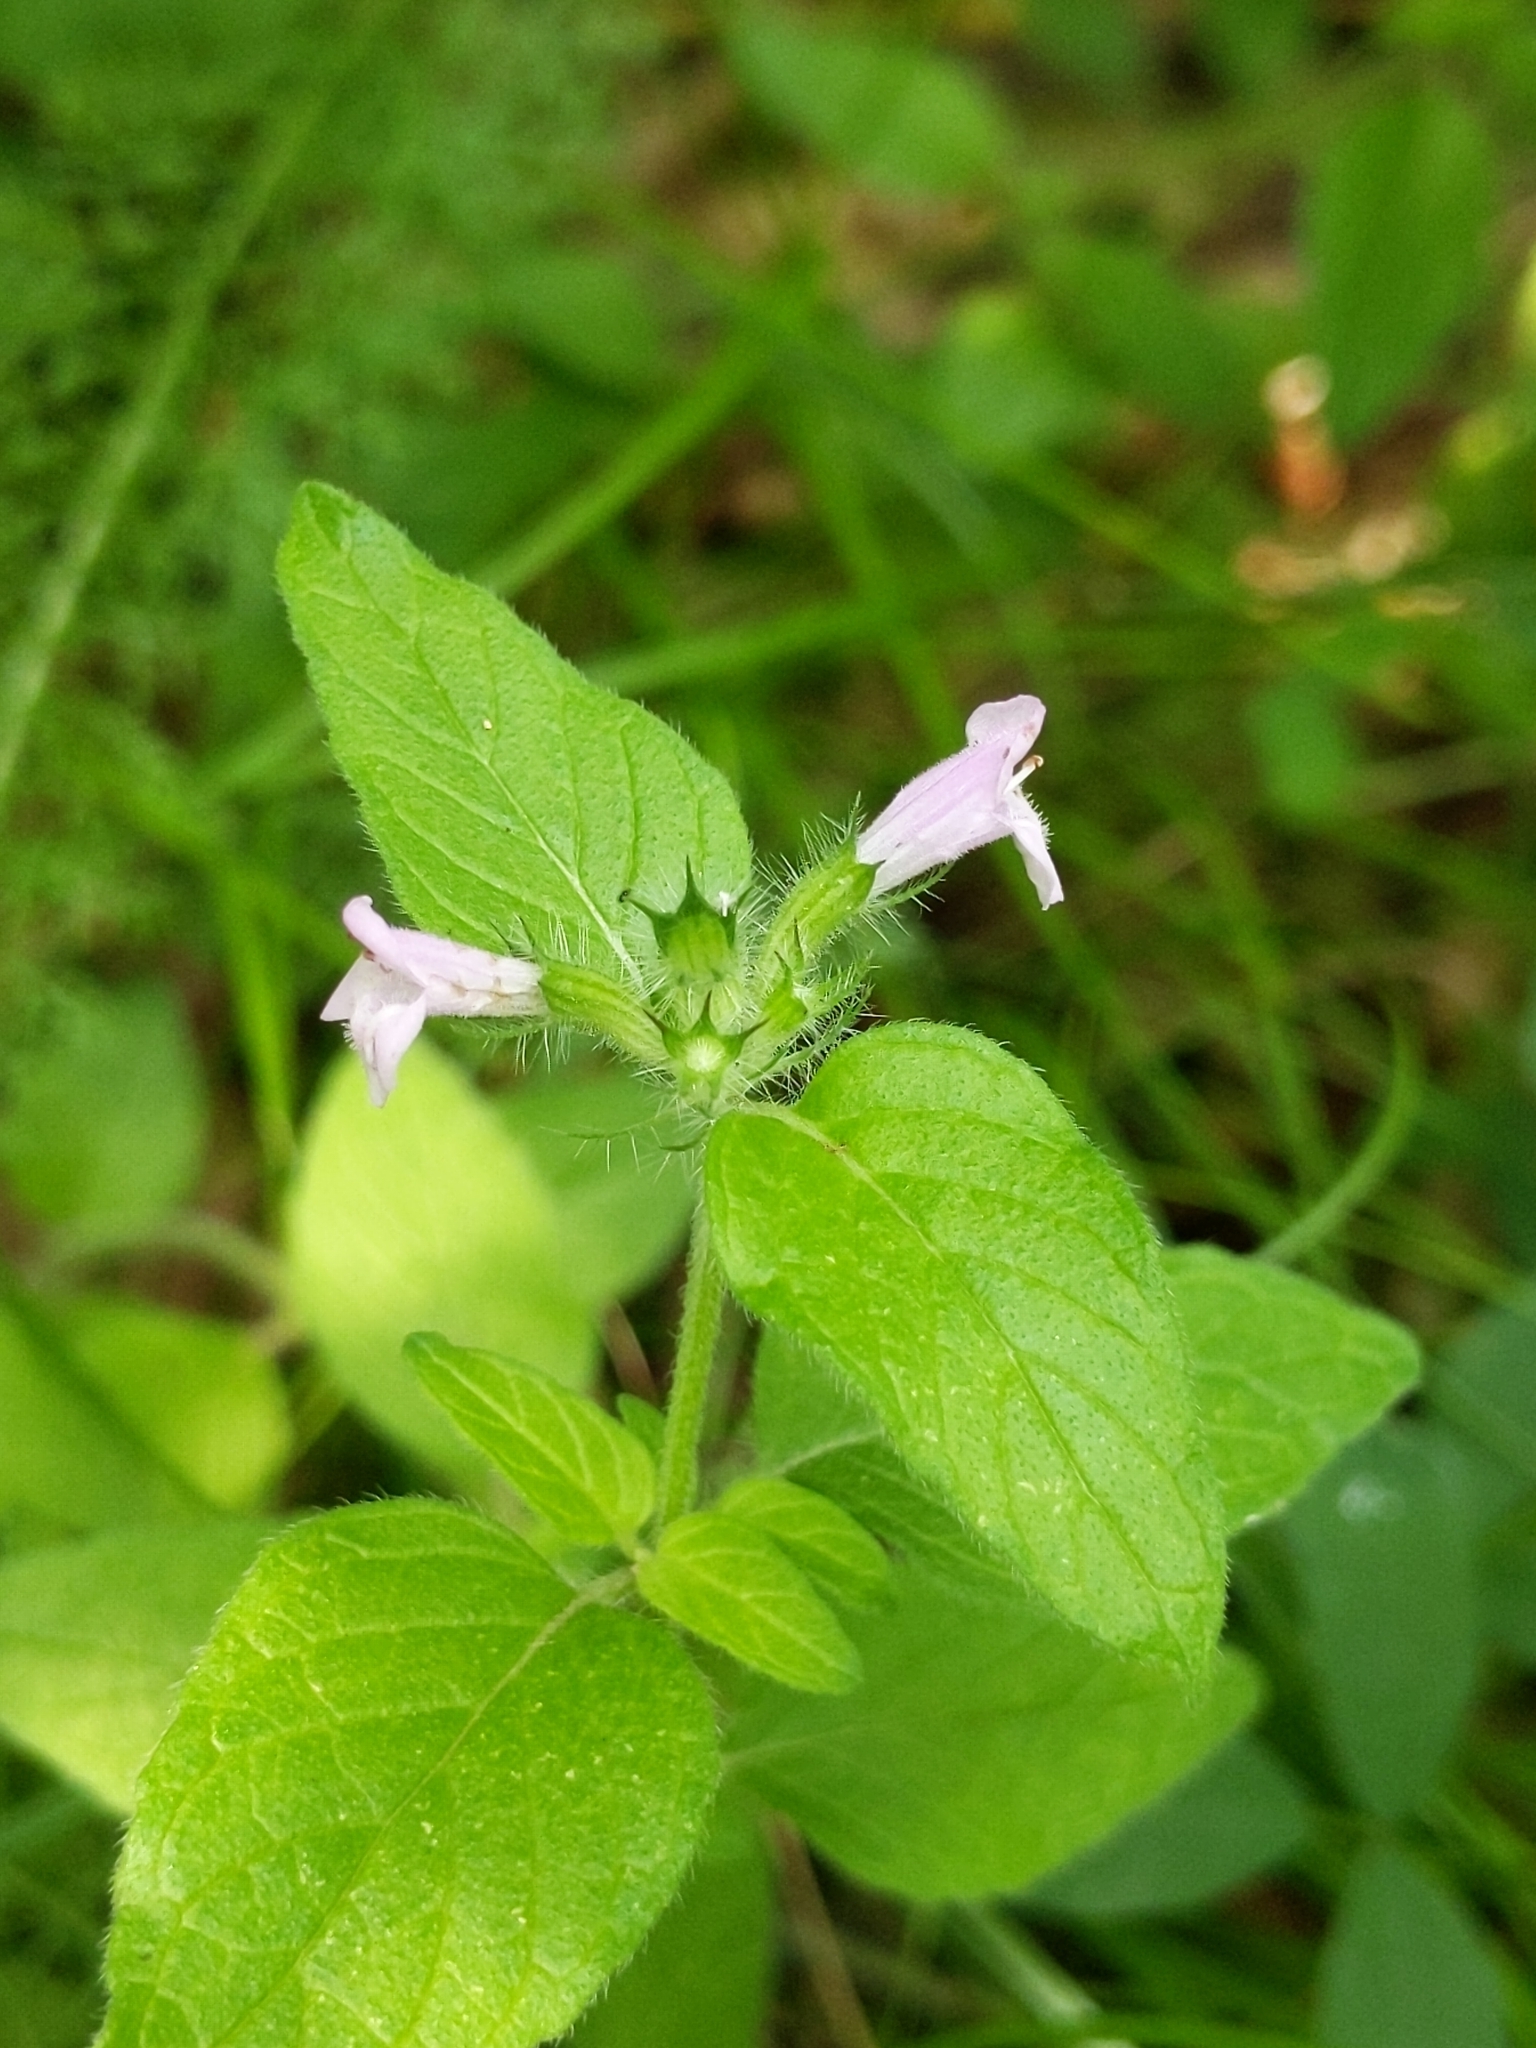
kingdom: Plantae
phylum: Tracheophyta
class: Magnoliopsida
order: Lamiales
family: Lamiaceae
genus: Clinopodium
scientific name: Clinopodium vulgare
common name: Wild basil
